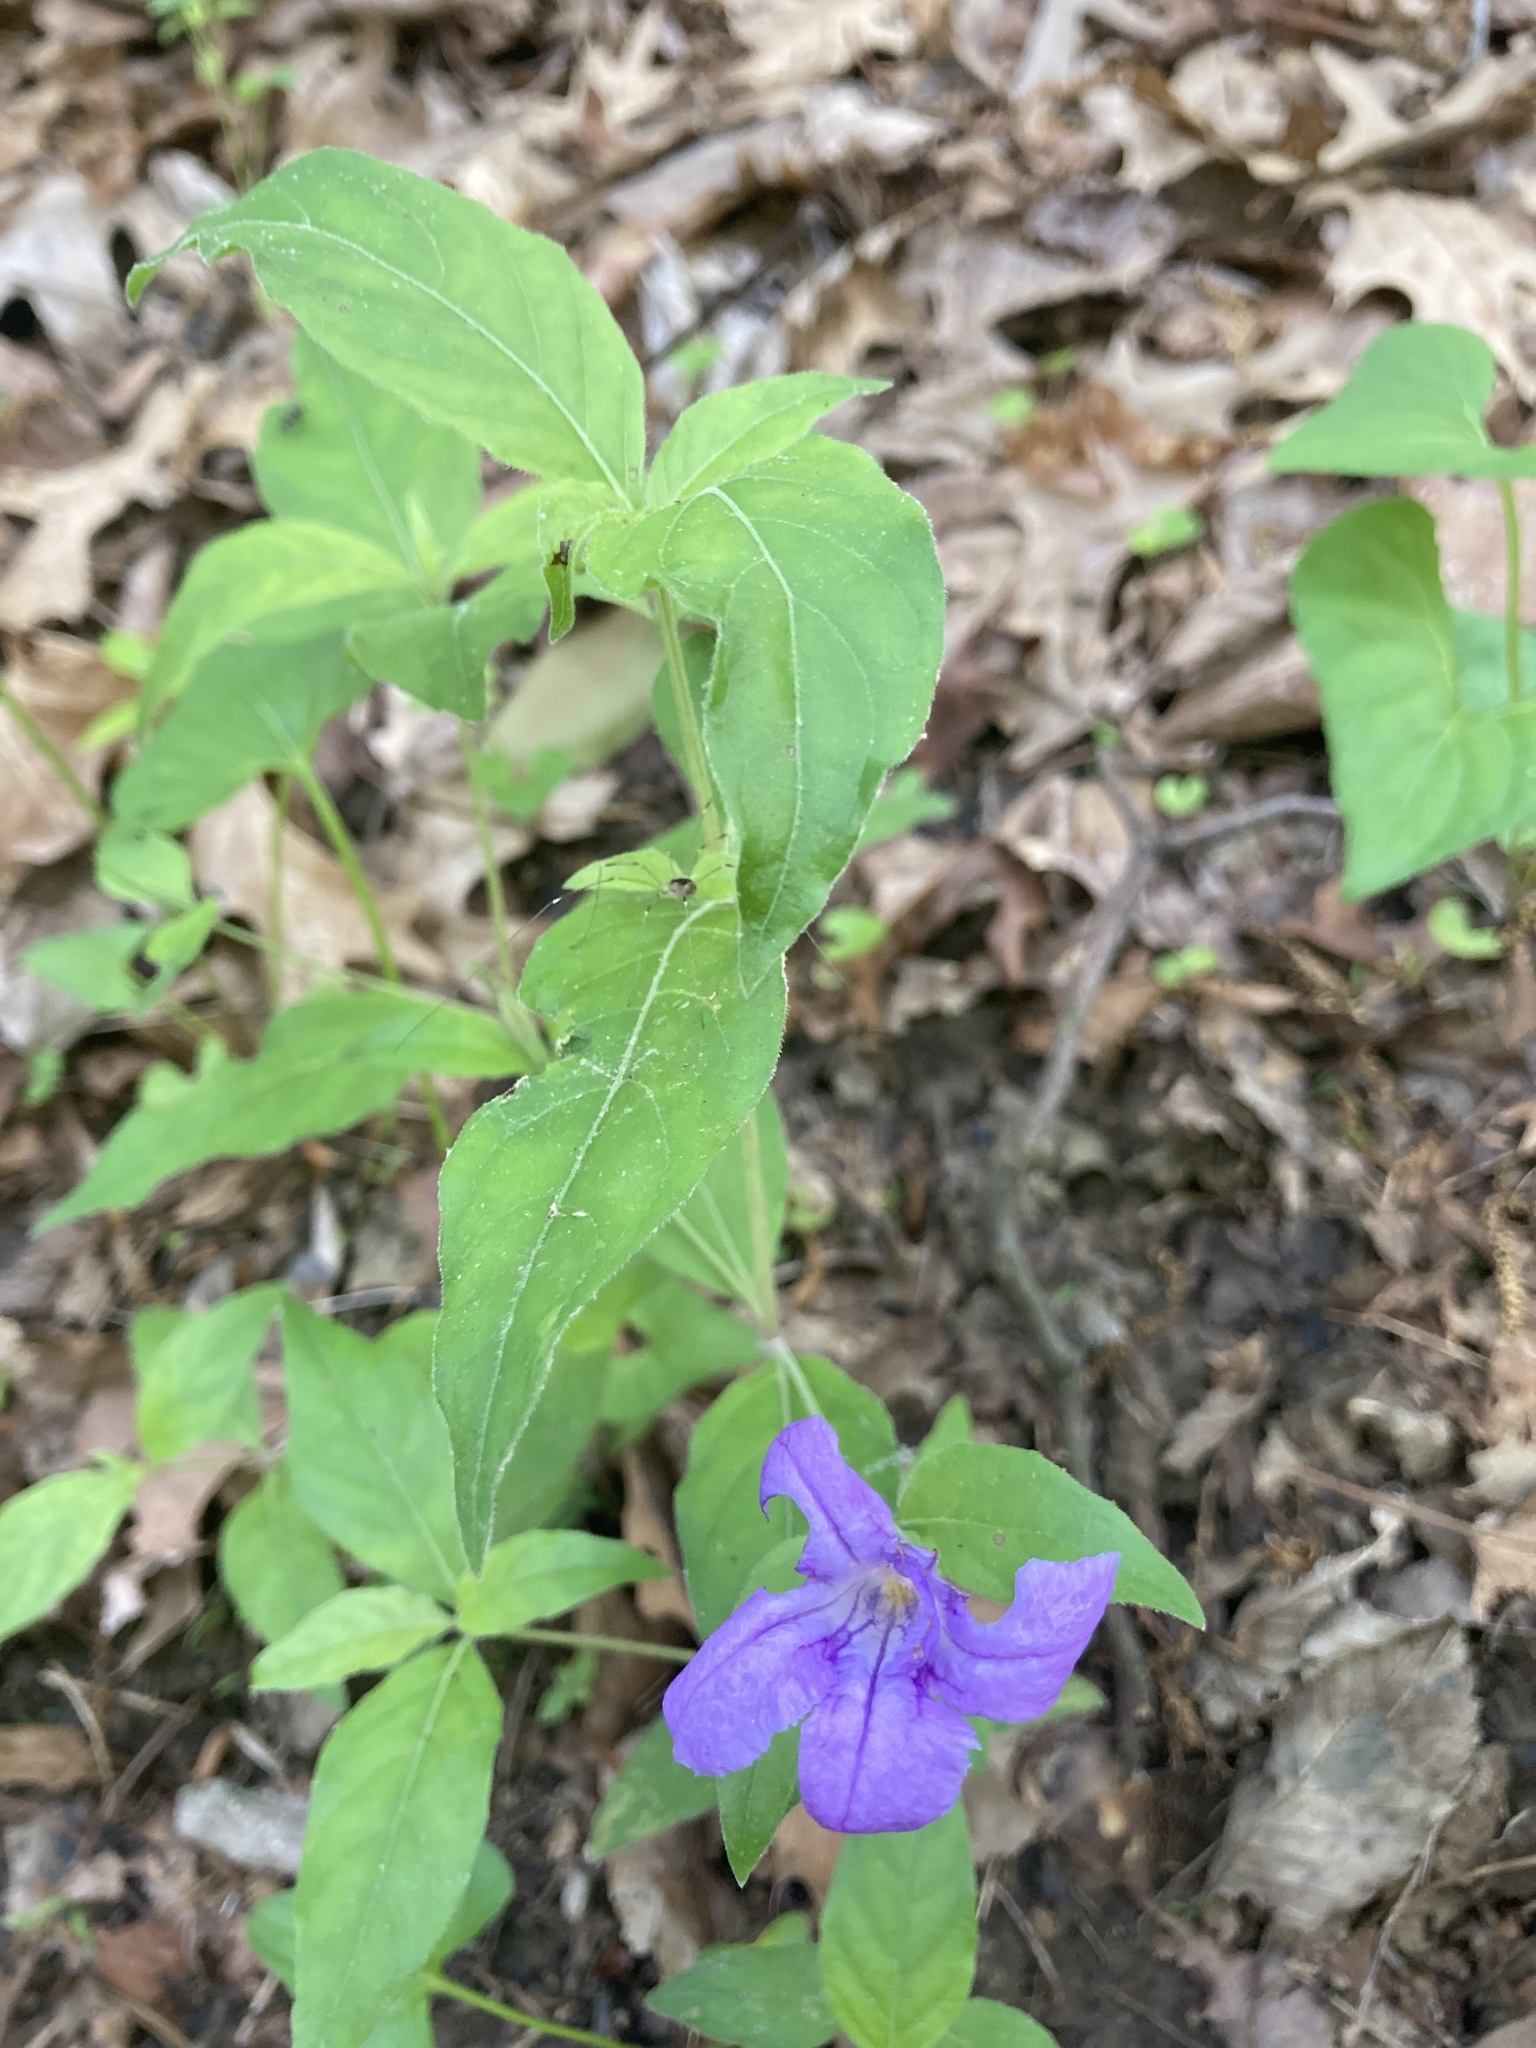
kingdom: Plantae
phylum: Tracheophyta
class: Magnoliopsida
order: Lamiales
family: Acanthaceae
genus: Ruellia
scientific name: Ruellia pedunculata
